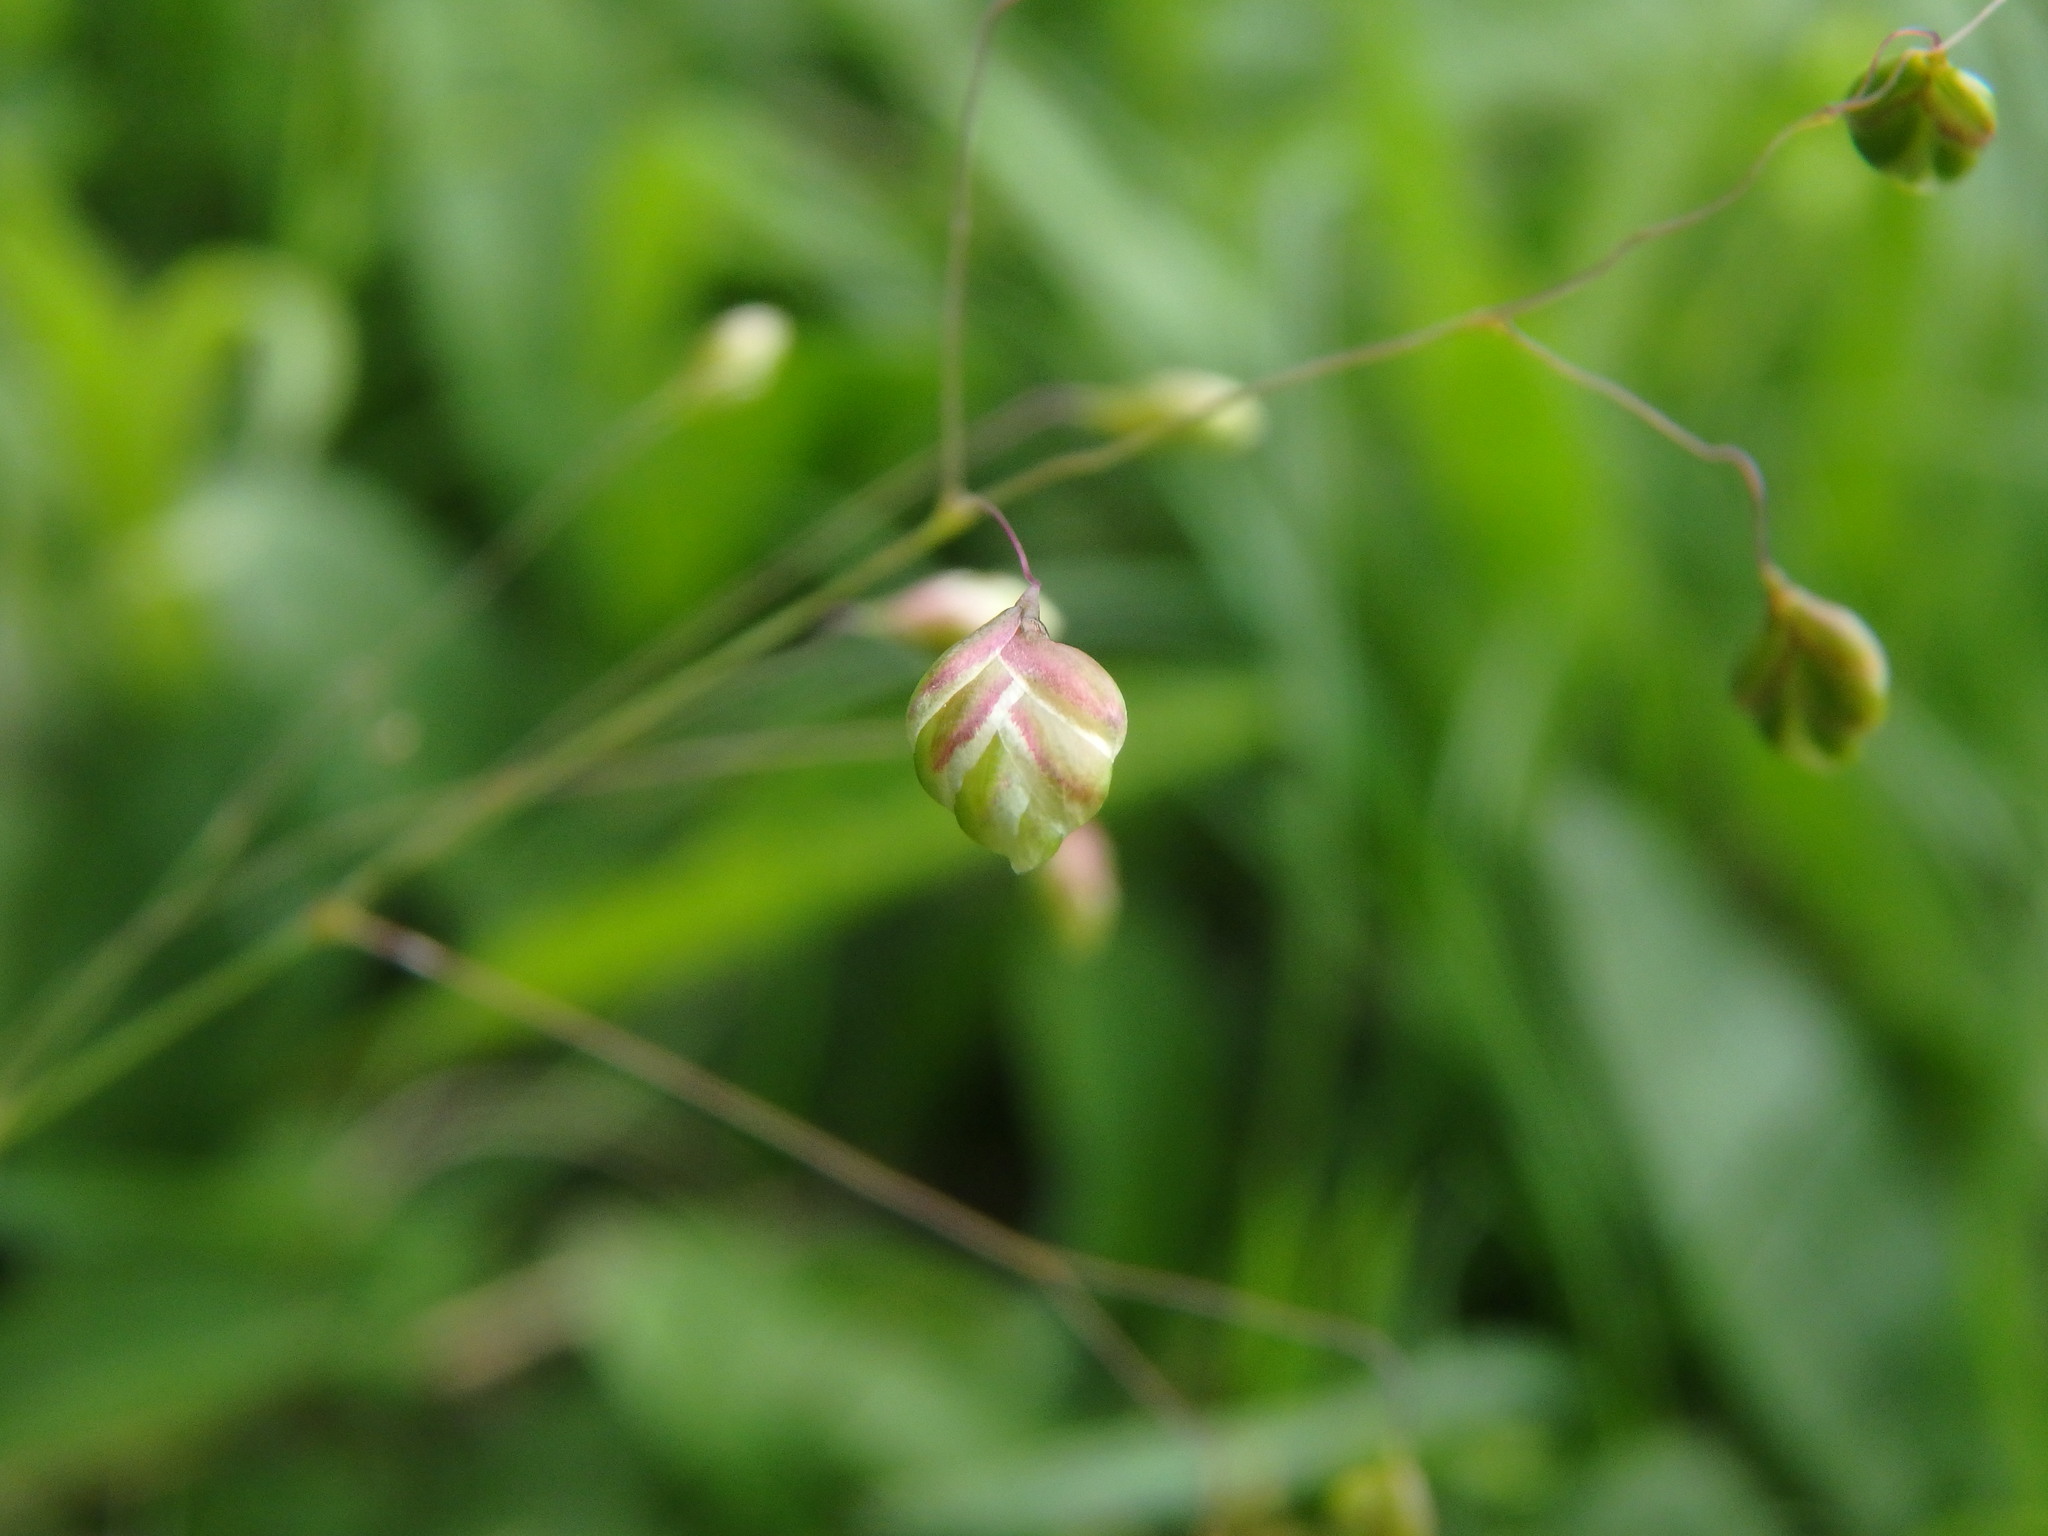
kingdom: Plantae
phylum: Tracheophyta
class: Liliopsida
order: Poales
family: Poaceae
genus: Briza
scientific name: Briza media
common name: Quaking grass
